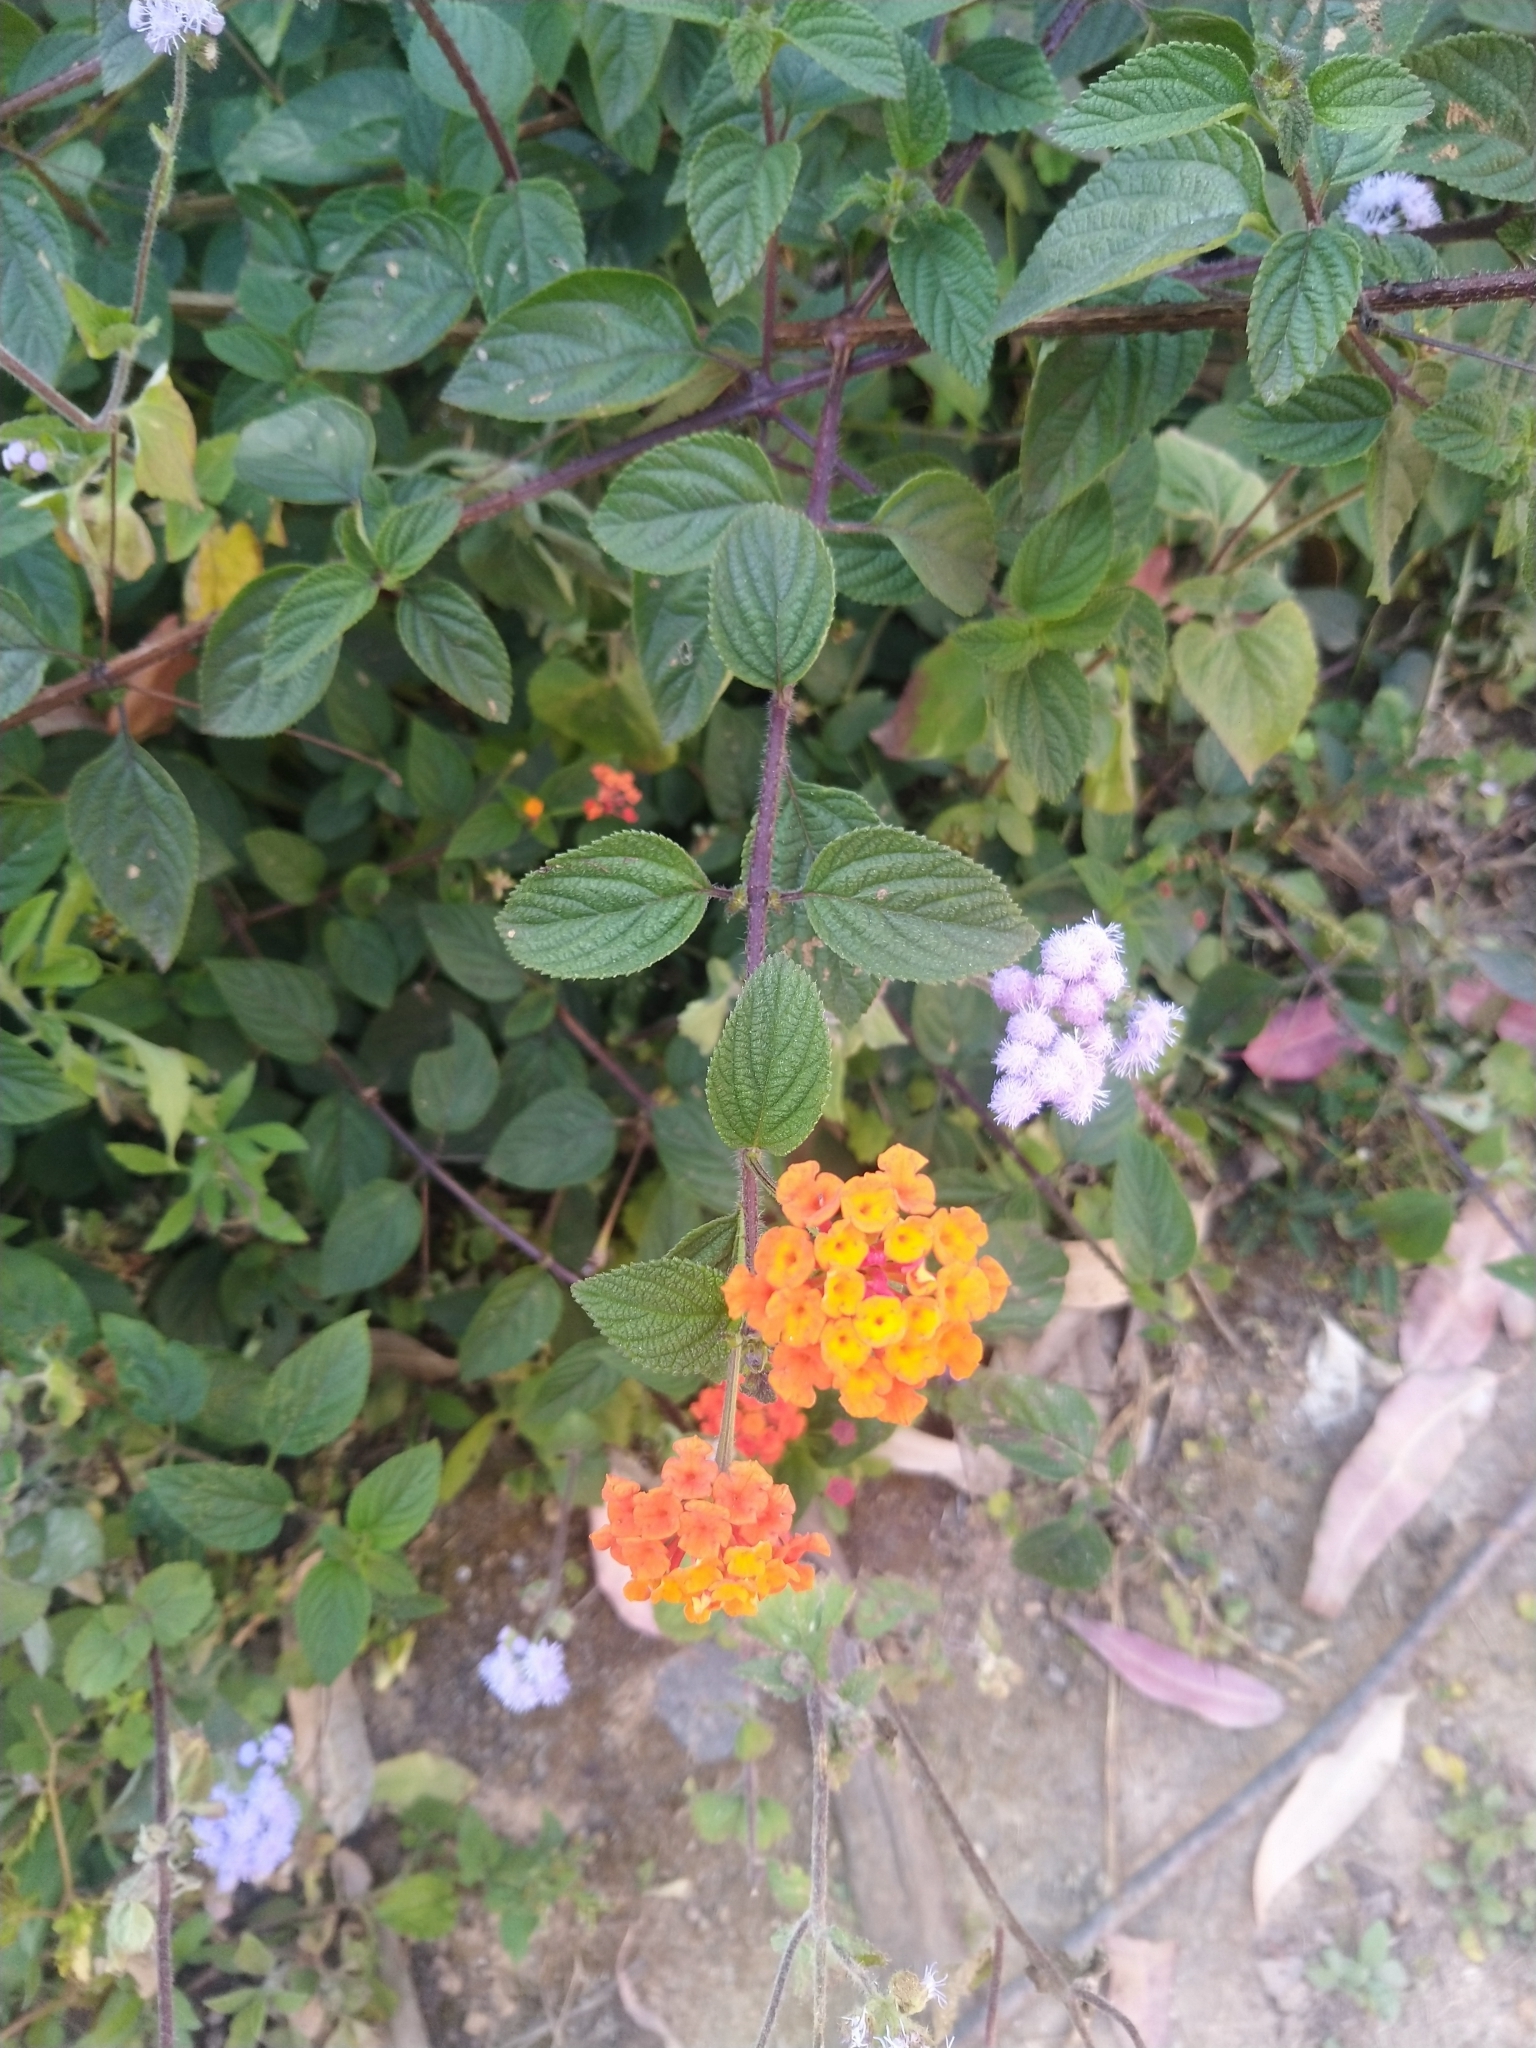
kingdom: Plantae
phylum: Tracheophyta
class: Magnoliopsida
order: Lamiales
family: Verbenaceae
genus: Lantana
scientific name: Lantana camara
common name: Lantana
